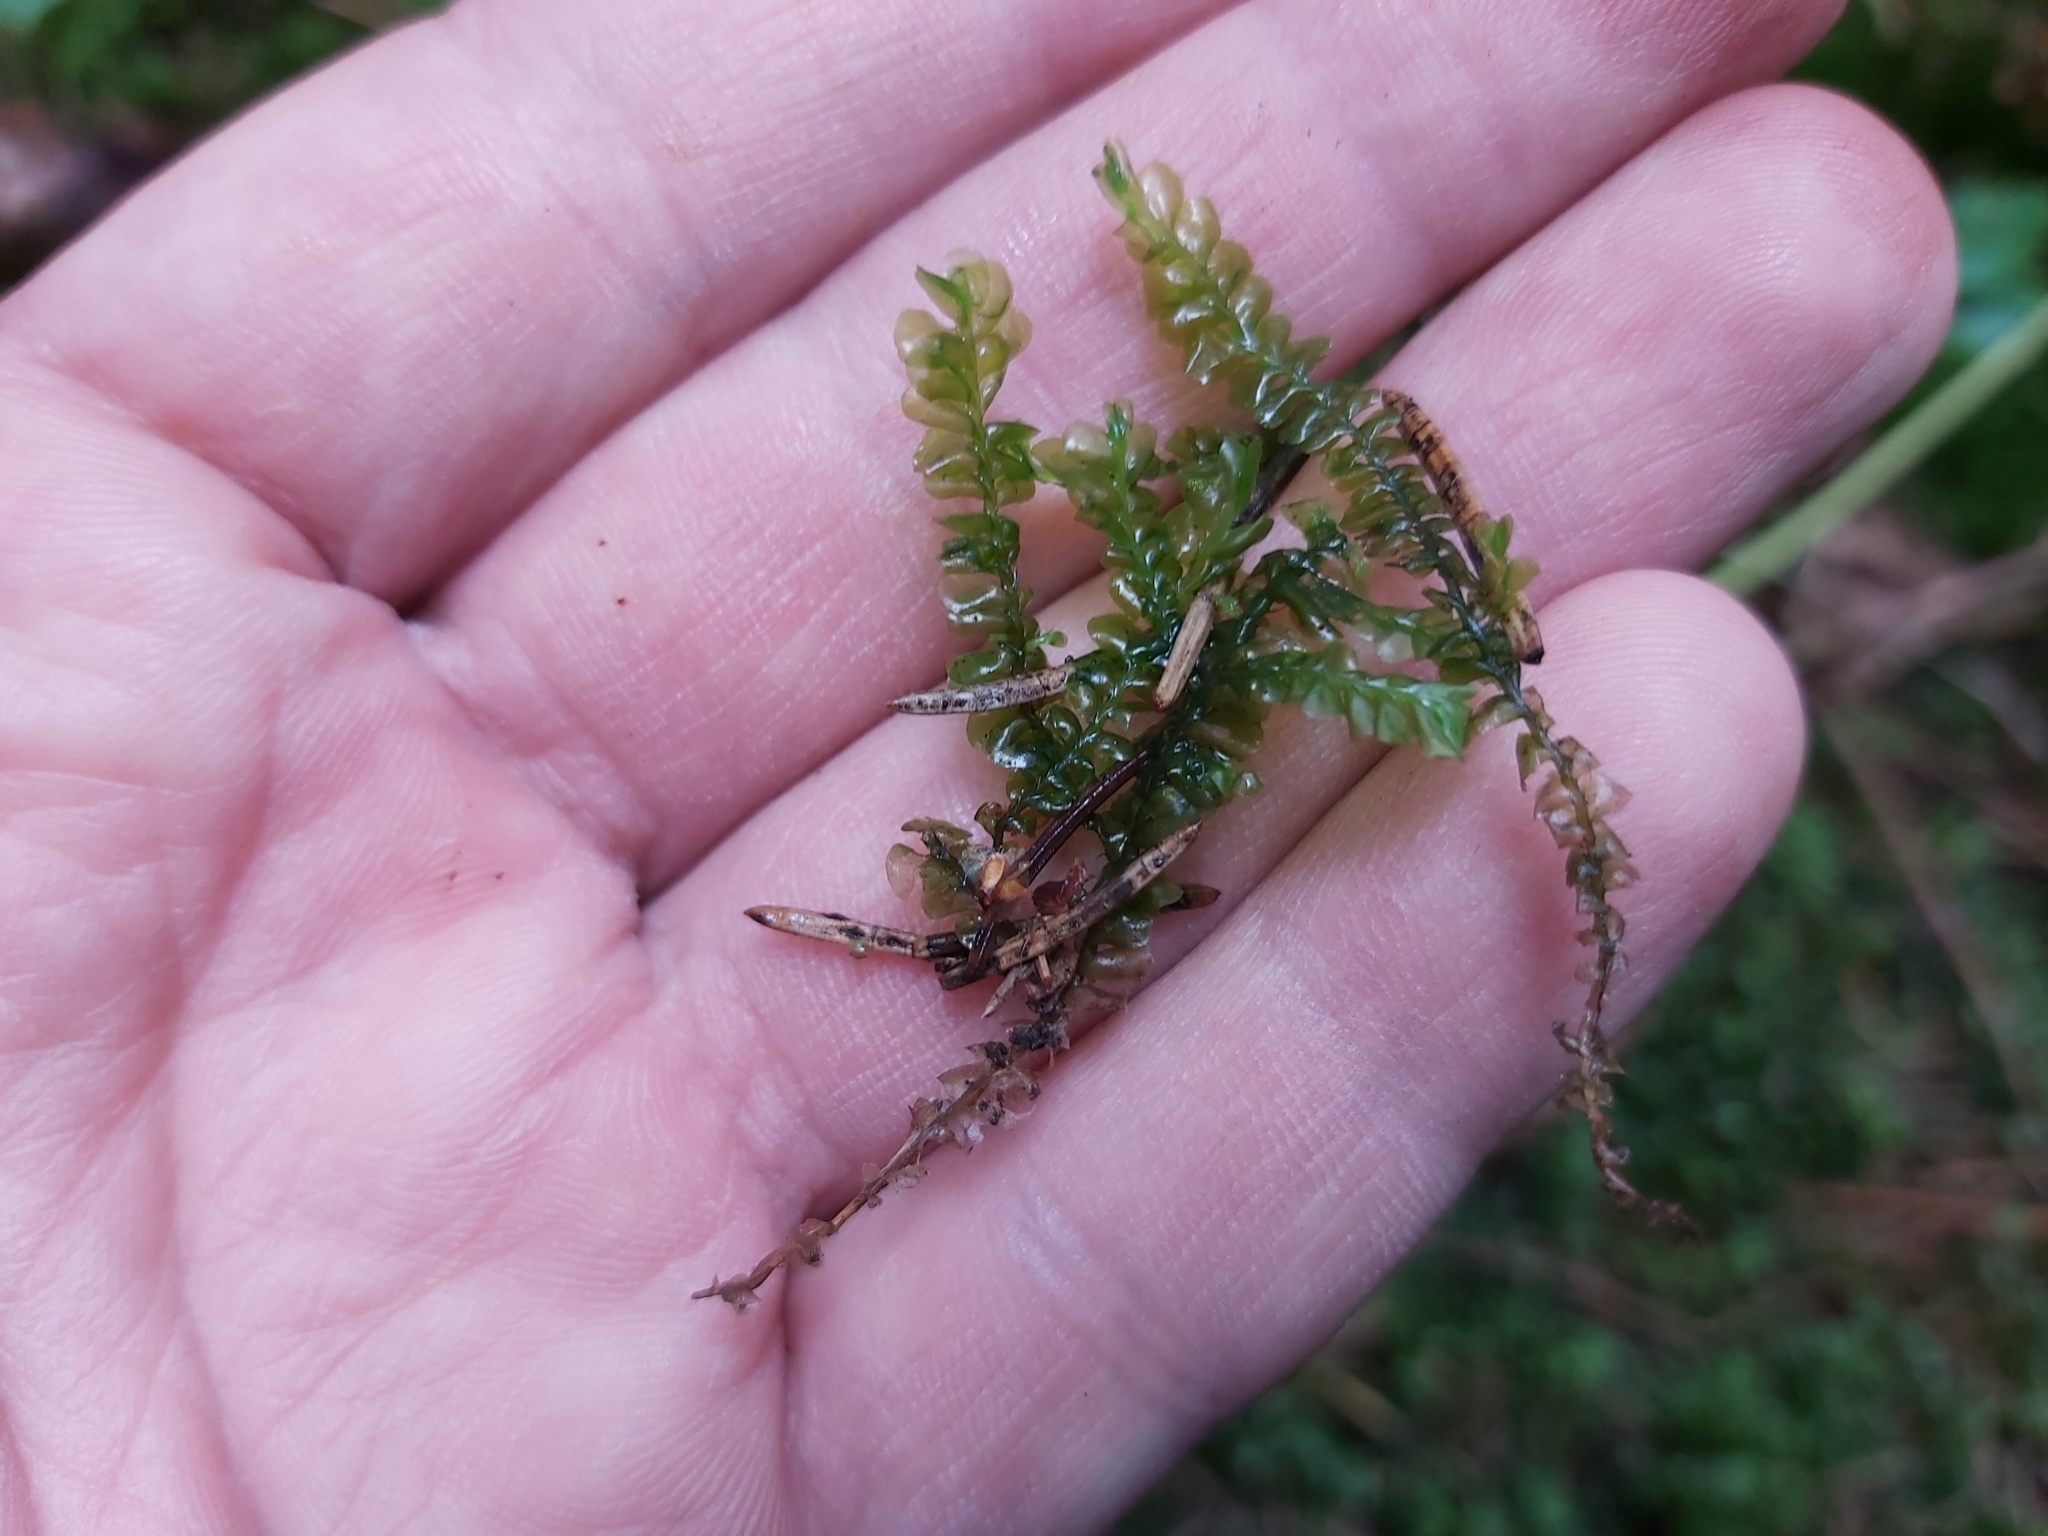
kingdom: Plantae
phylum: Marchantiophyta
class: Jungermanniopsida
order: Jungermanniales
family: Plagiochilaceae
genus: Plagiochila
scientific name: Plagiochila asplenioides
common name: Greater featherwort
